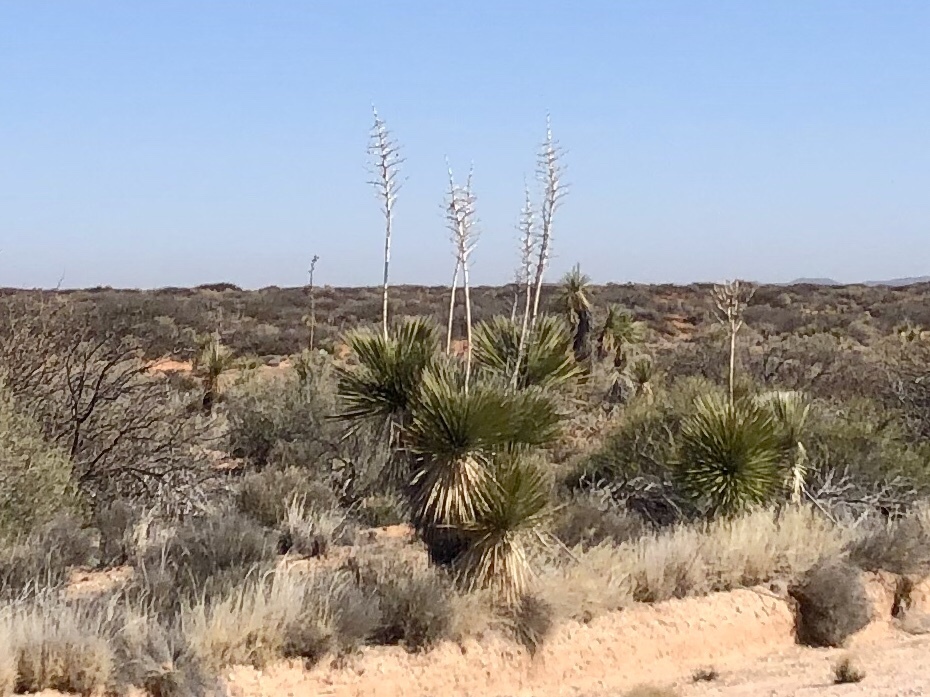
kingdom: Plantae
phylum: Tracheophyta
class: Liliopsida
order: Asparagales
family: Asparagaceae
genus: Yucca
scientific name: Yucca elata
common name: Palmella
